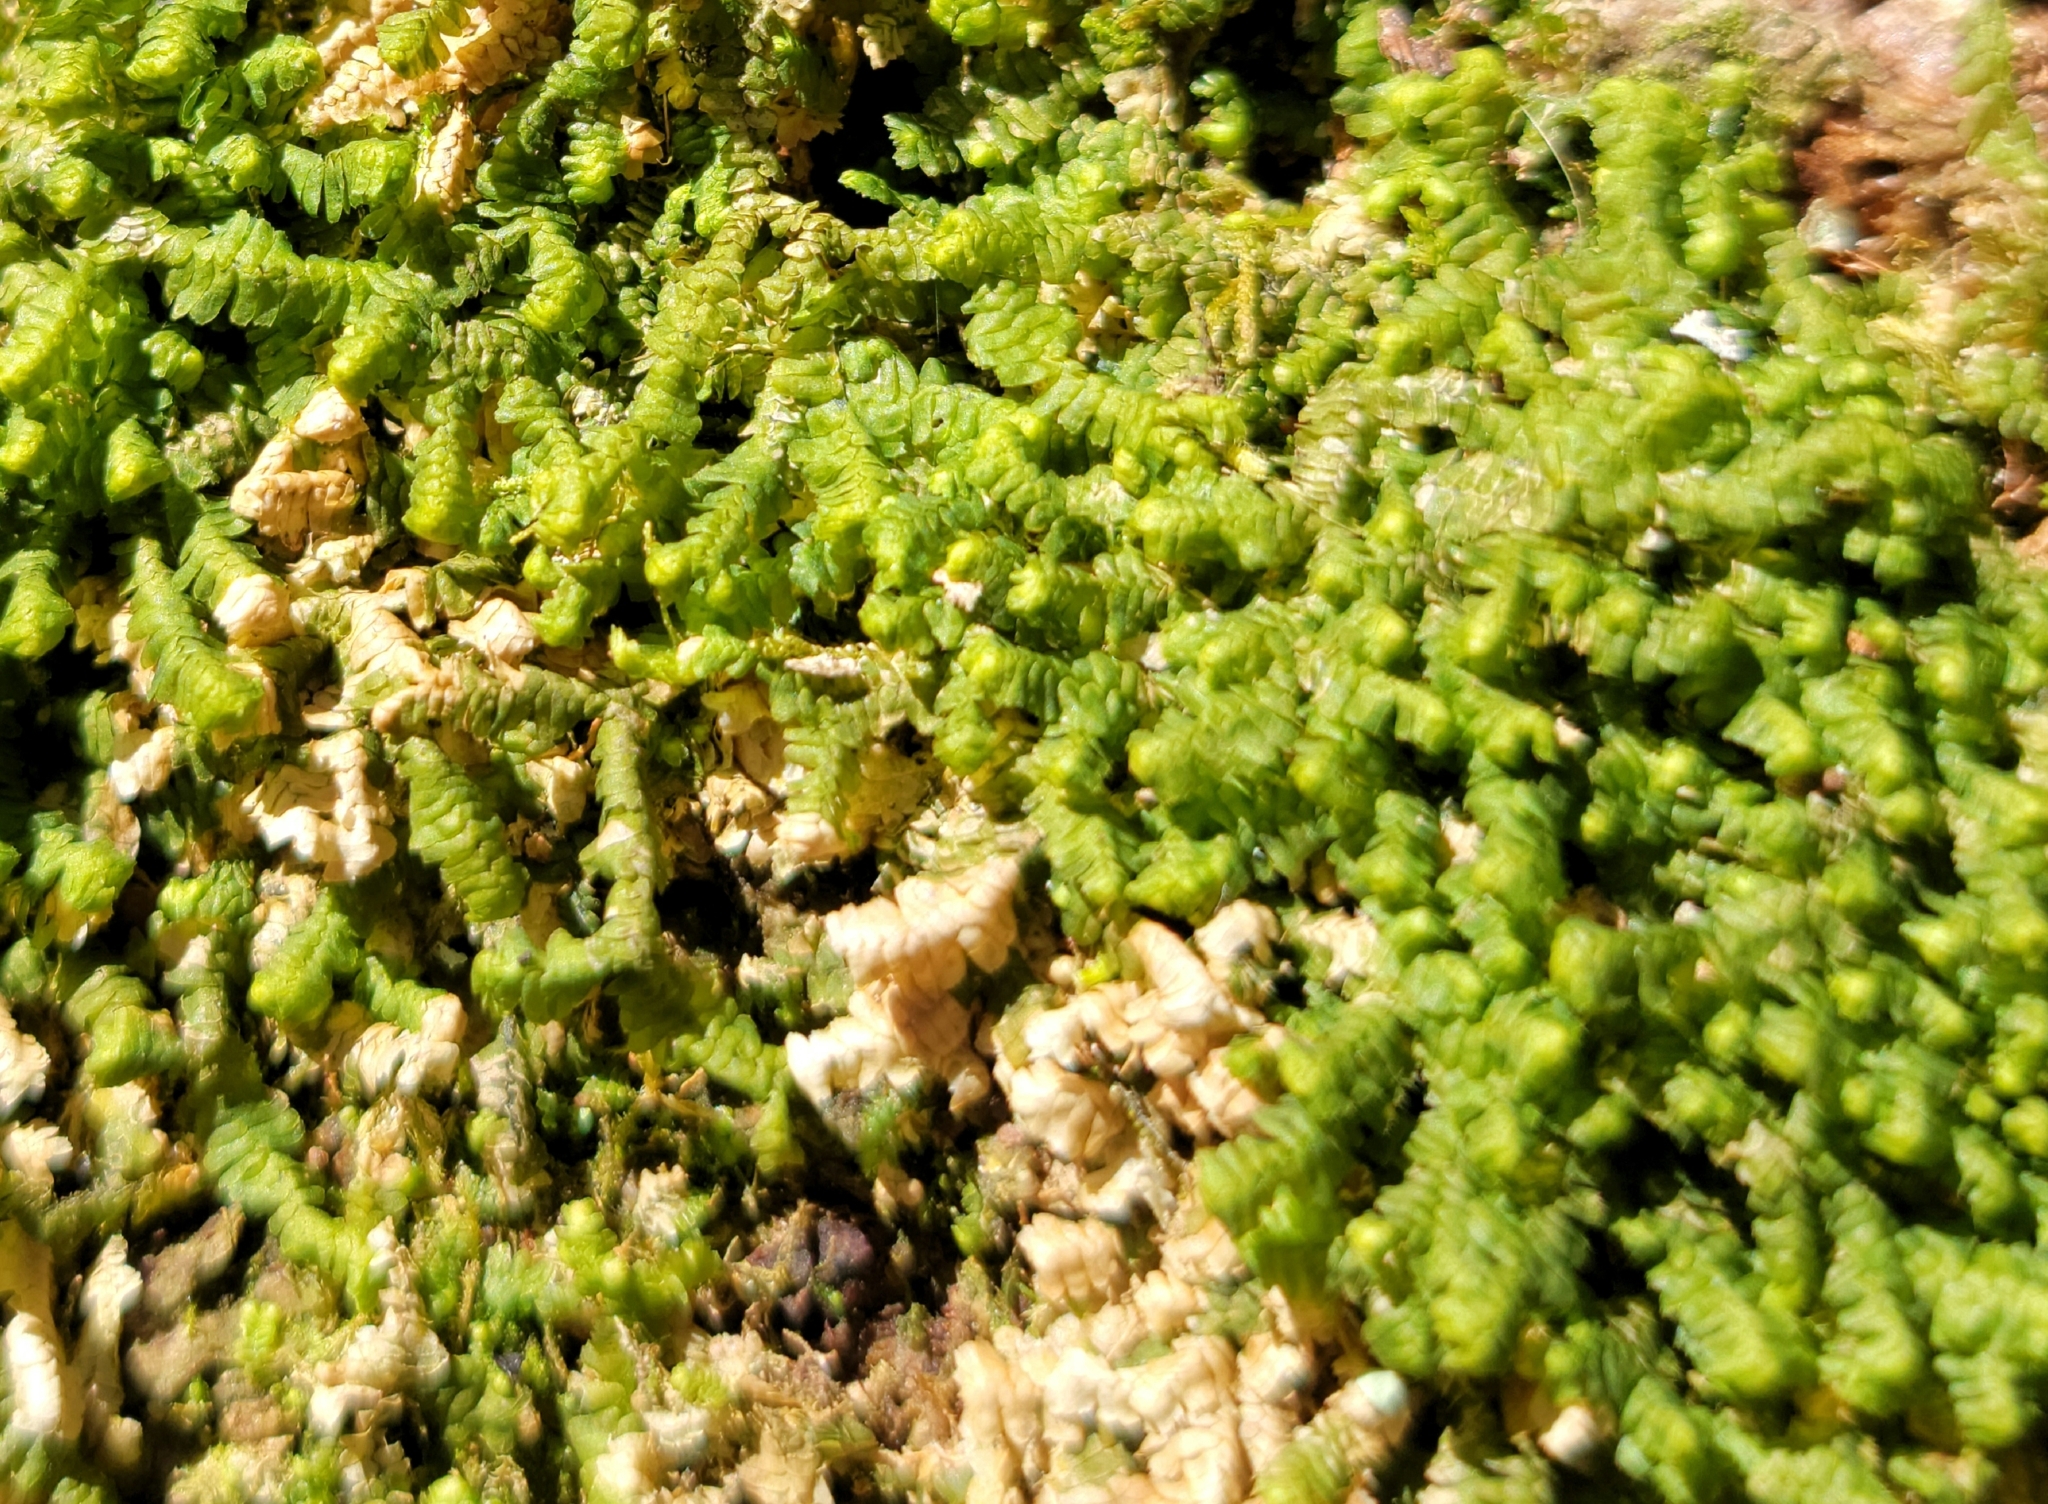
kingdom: Plantae
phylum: Marchantiophyta
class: Jungermanniopsida
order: Jungermanniales
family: Lepidoziaceae
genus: Bazzania
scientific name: Bazzania trilobata
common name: Three-lobed whipwort
